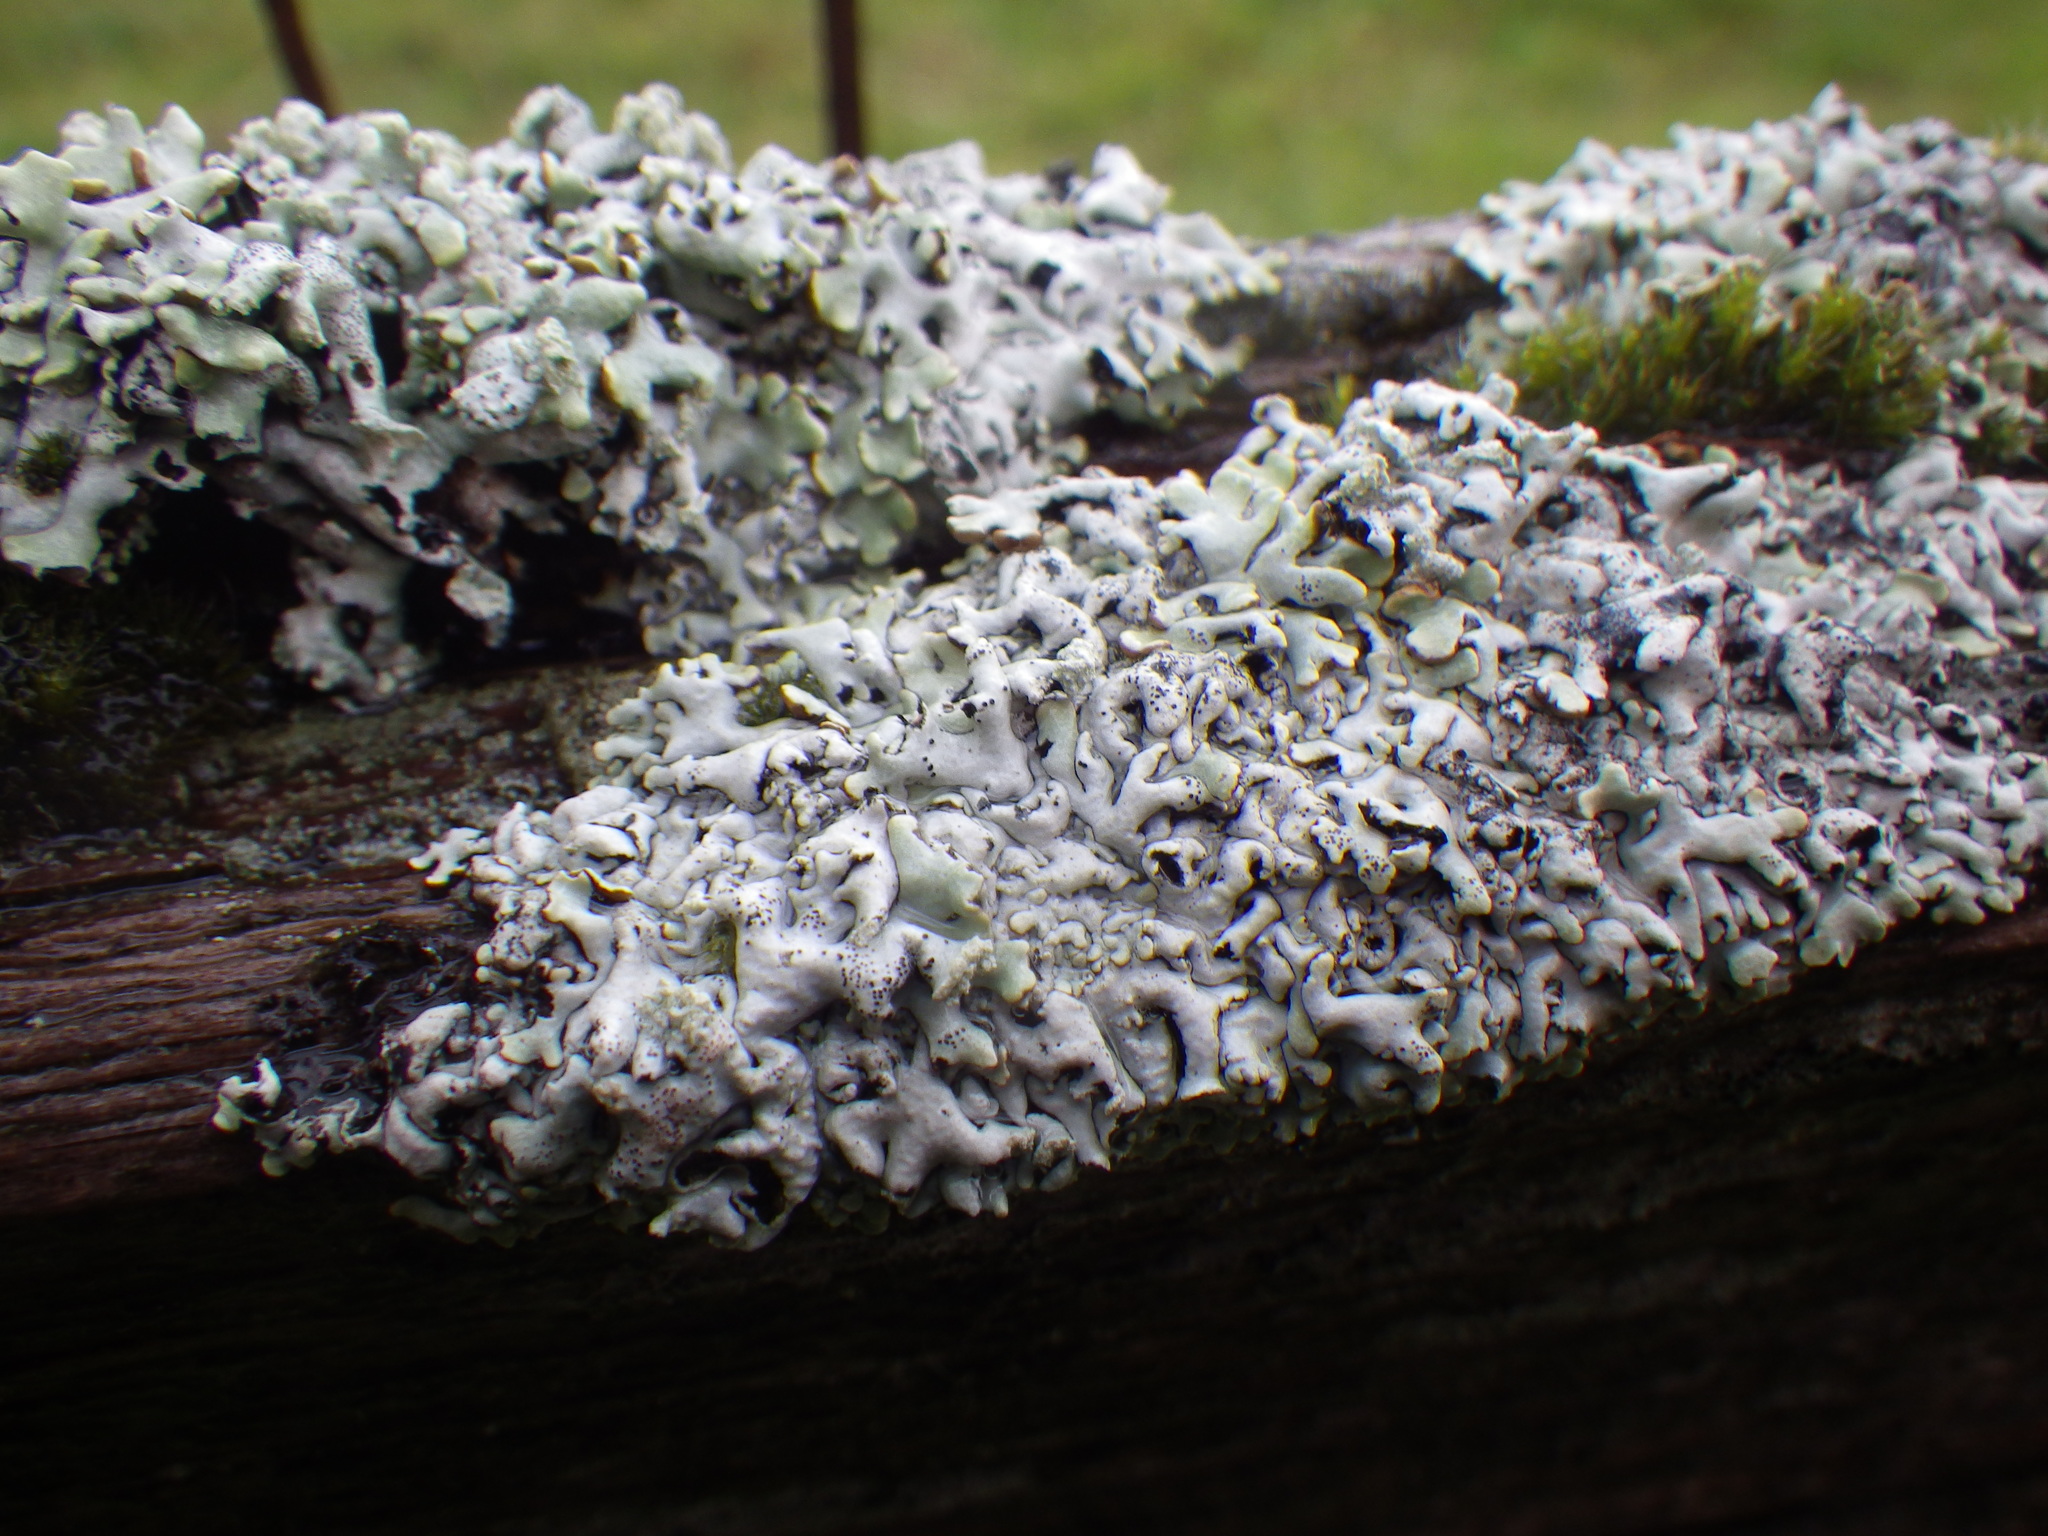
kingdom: Fungi
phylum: Ascomycota
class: Lecanoromycetes
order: Lecanorales
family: Parmeliaceae
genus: Hypogymnia
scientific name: Hypogymnia physodes
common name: Dark crottle
